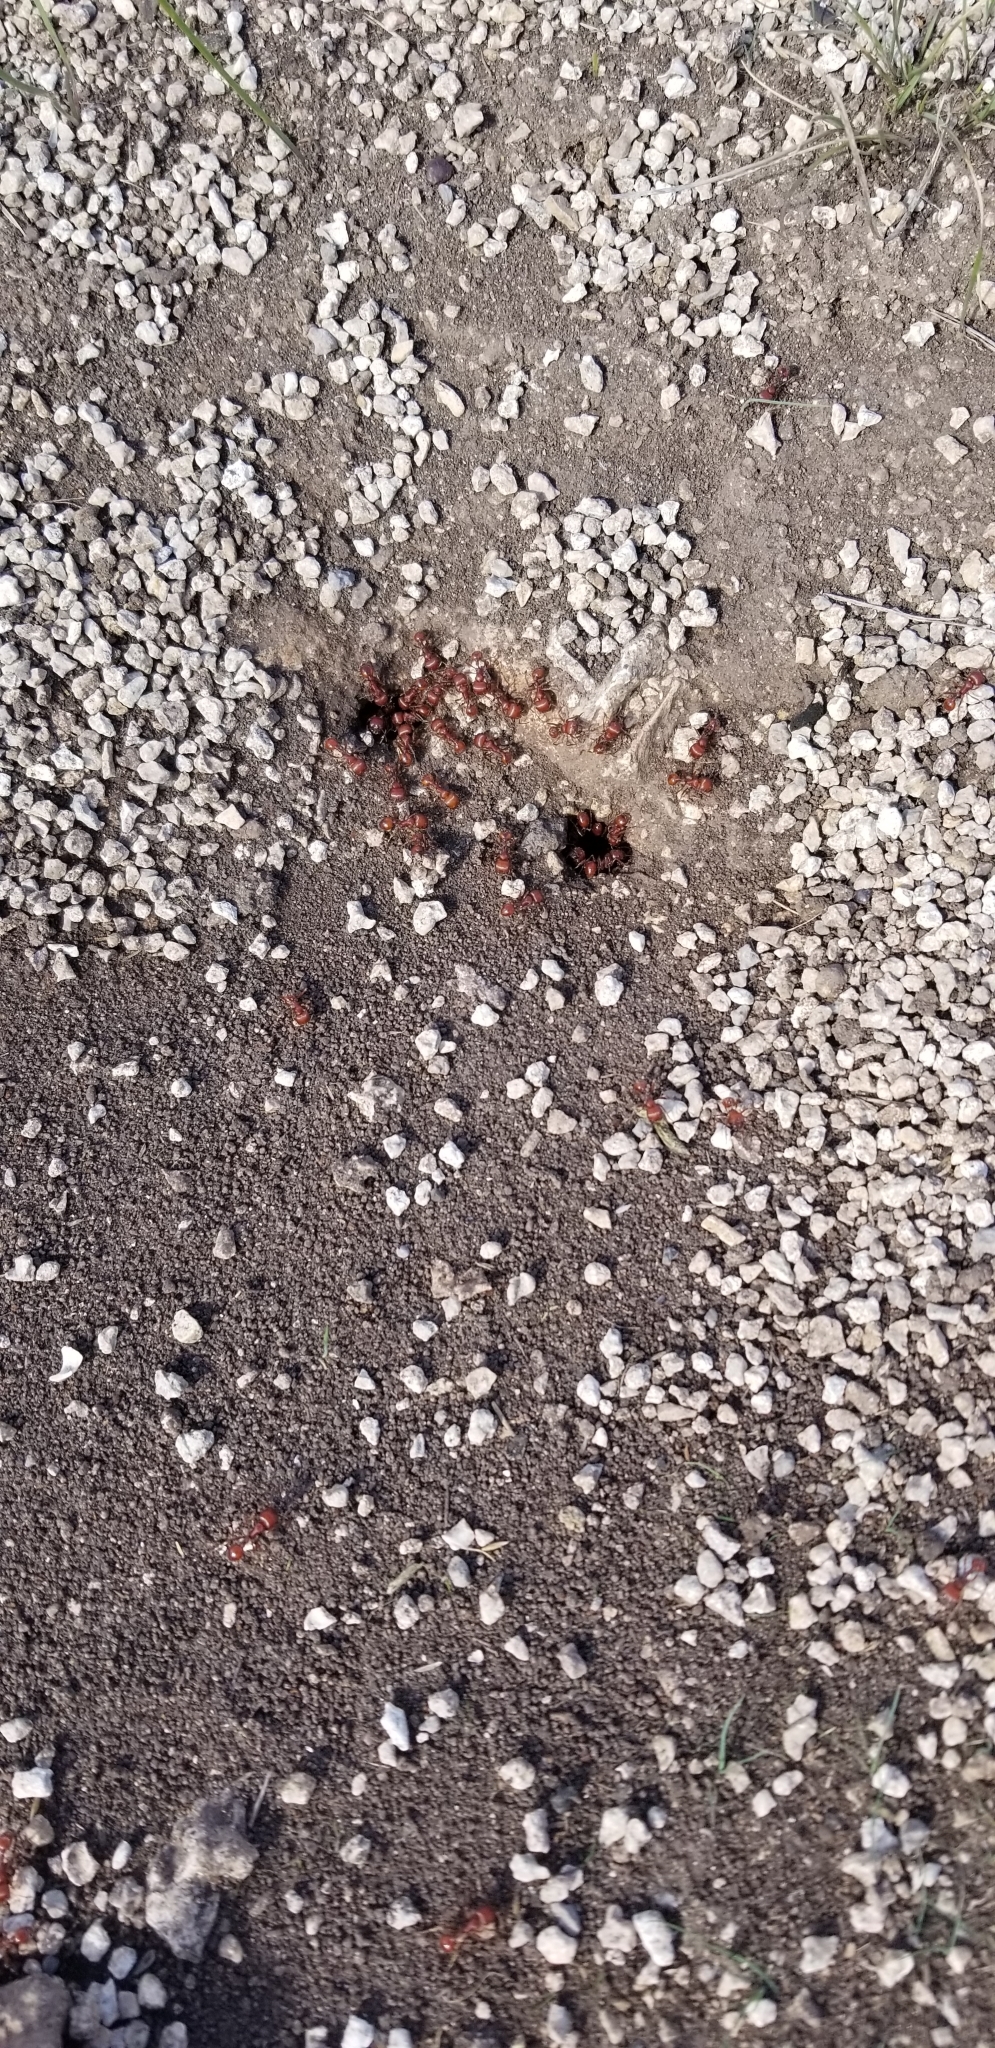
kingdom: Animalia
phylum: Arthropoda
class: Insecta
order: Hymenoptera
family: Formicidae
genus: Pogonomyrmex
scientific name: Pogonomyrmex barbatus
